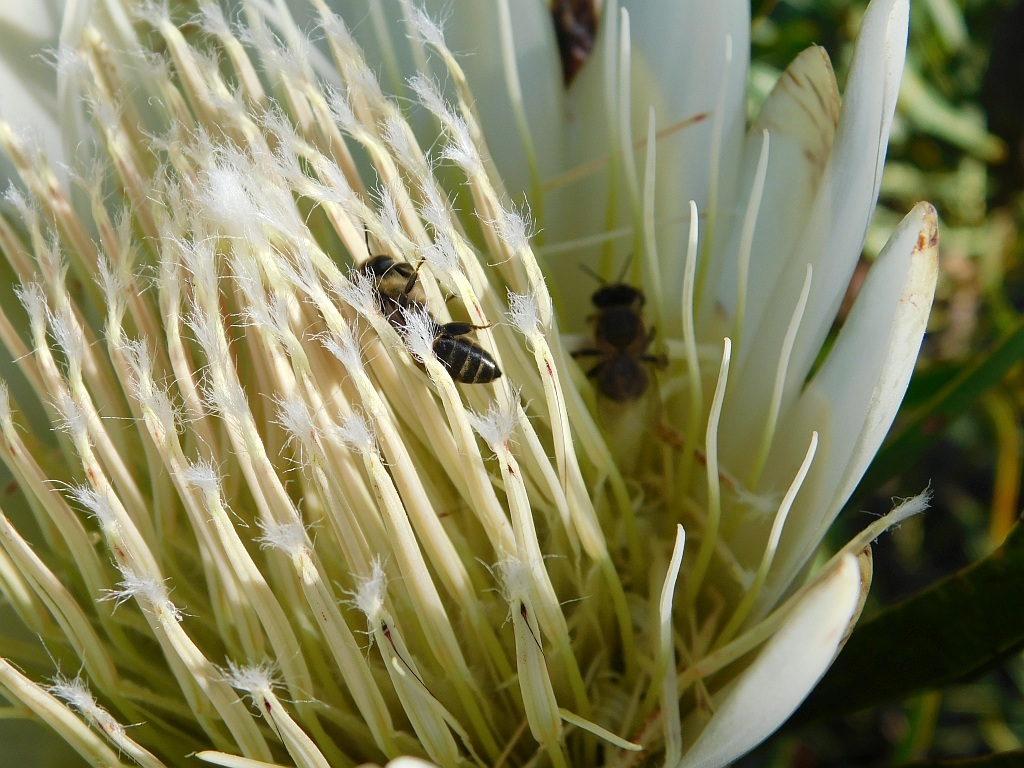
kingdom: Animalia
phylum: Arthropoda
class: Insecta
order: Hymenoptera
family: Apidae
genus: Apis
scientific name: Apis mellifera
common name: Honey bee
